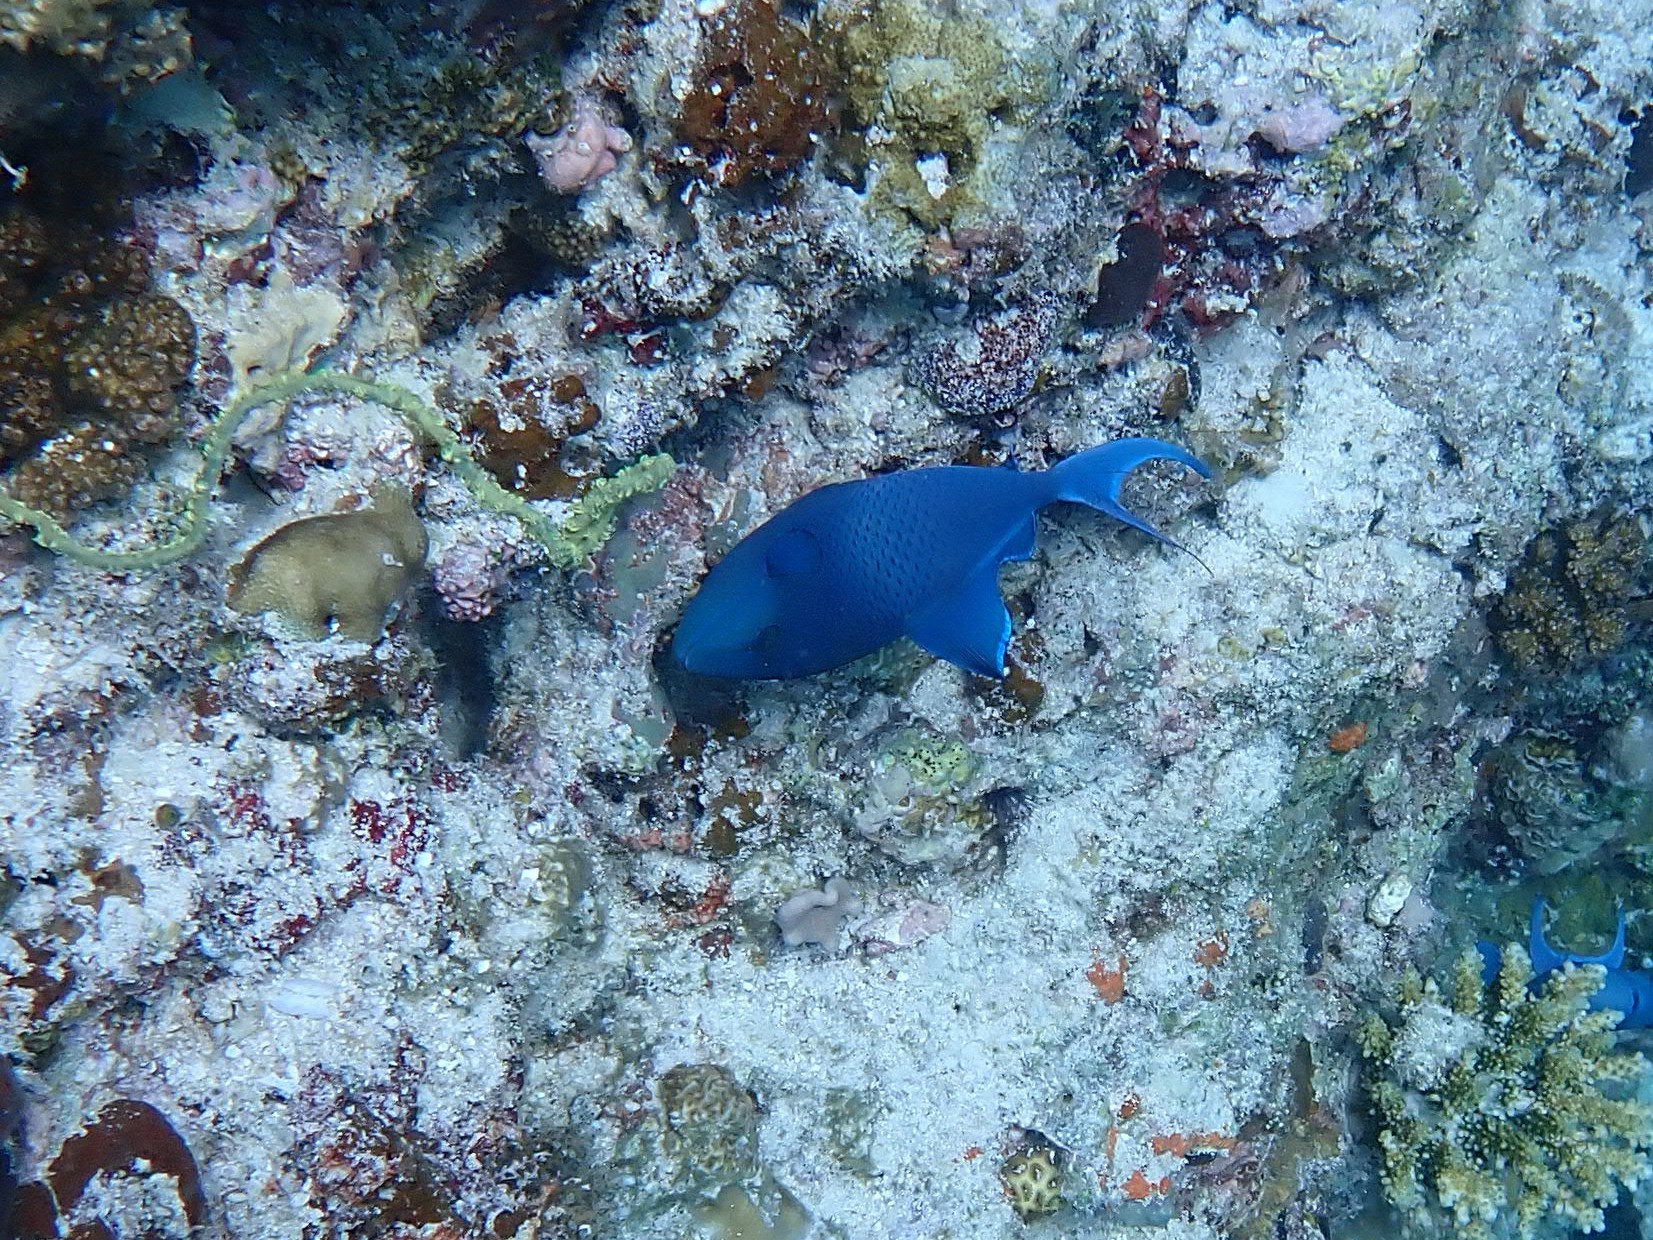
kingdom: Animalia
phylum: Chordata
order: Tetraodontiformes
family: Balistidae
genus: Odonus
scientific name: Odonus niger
